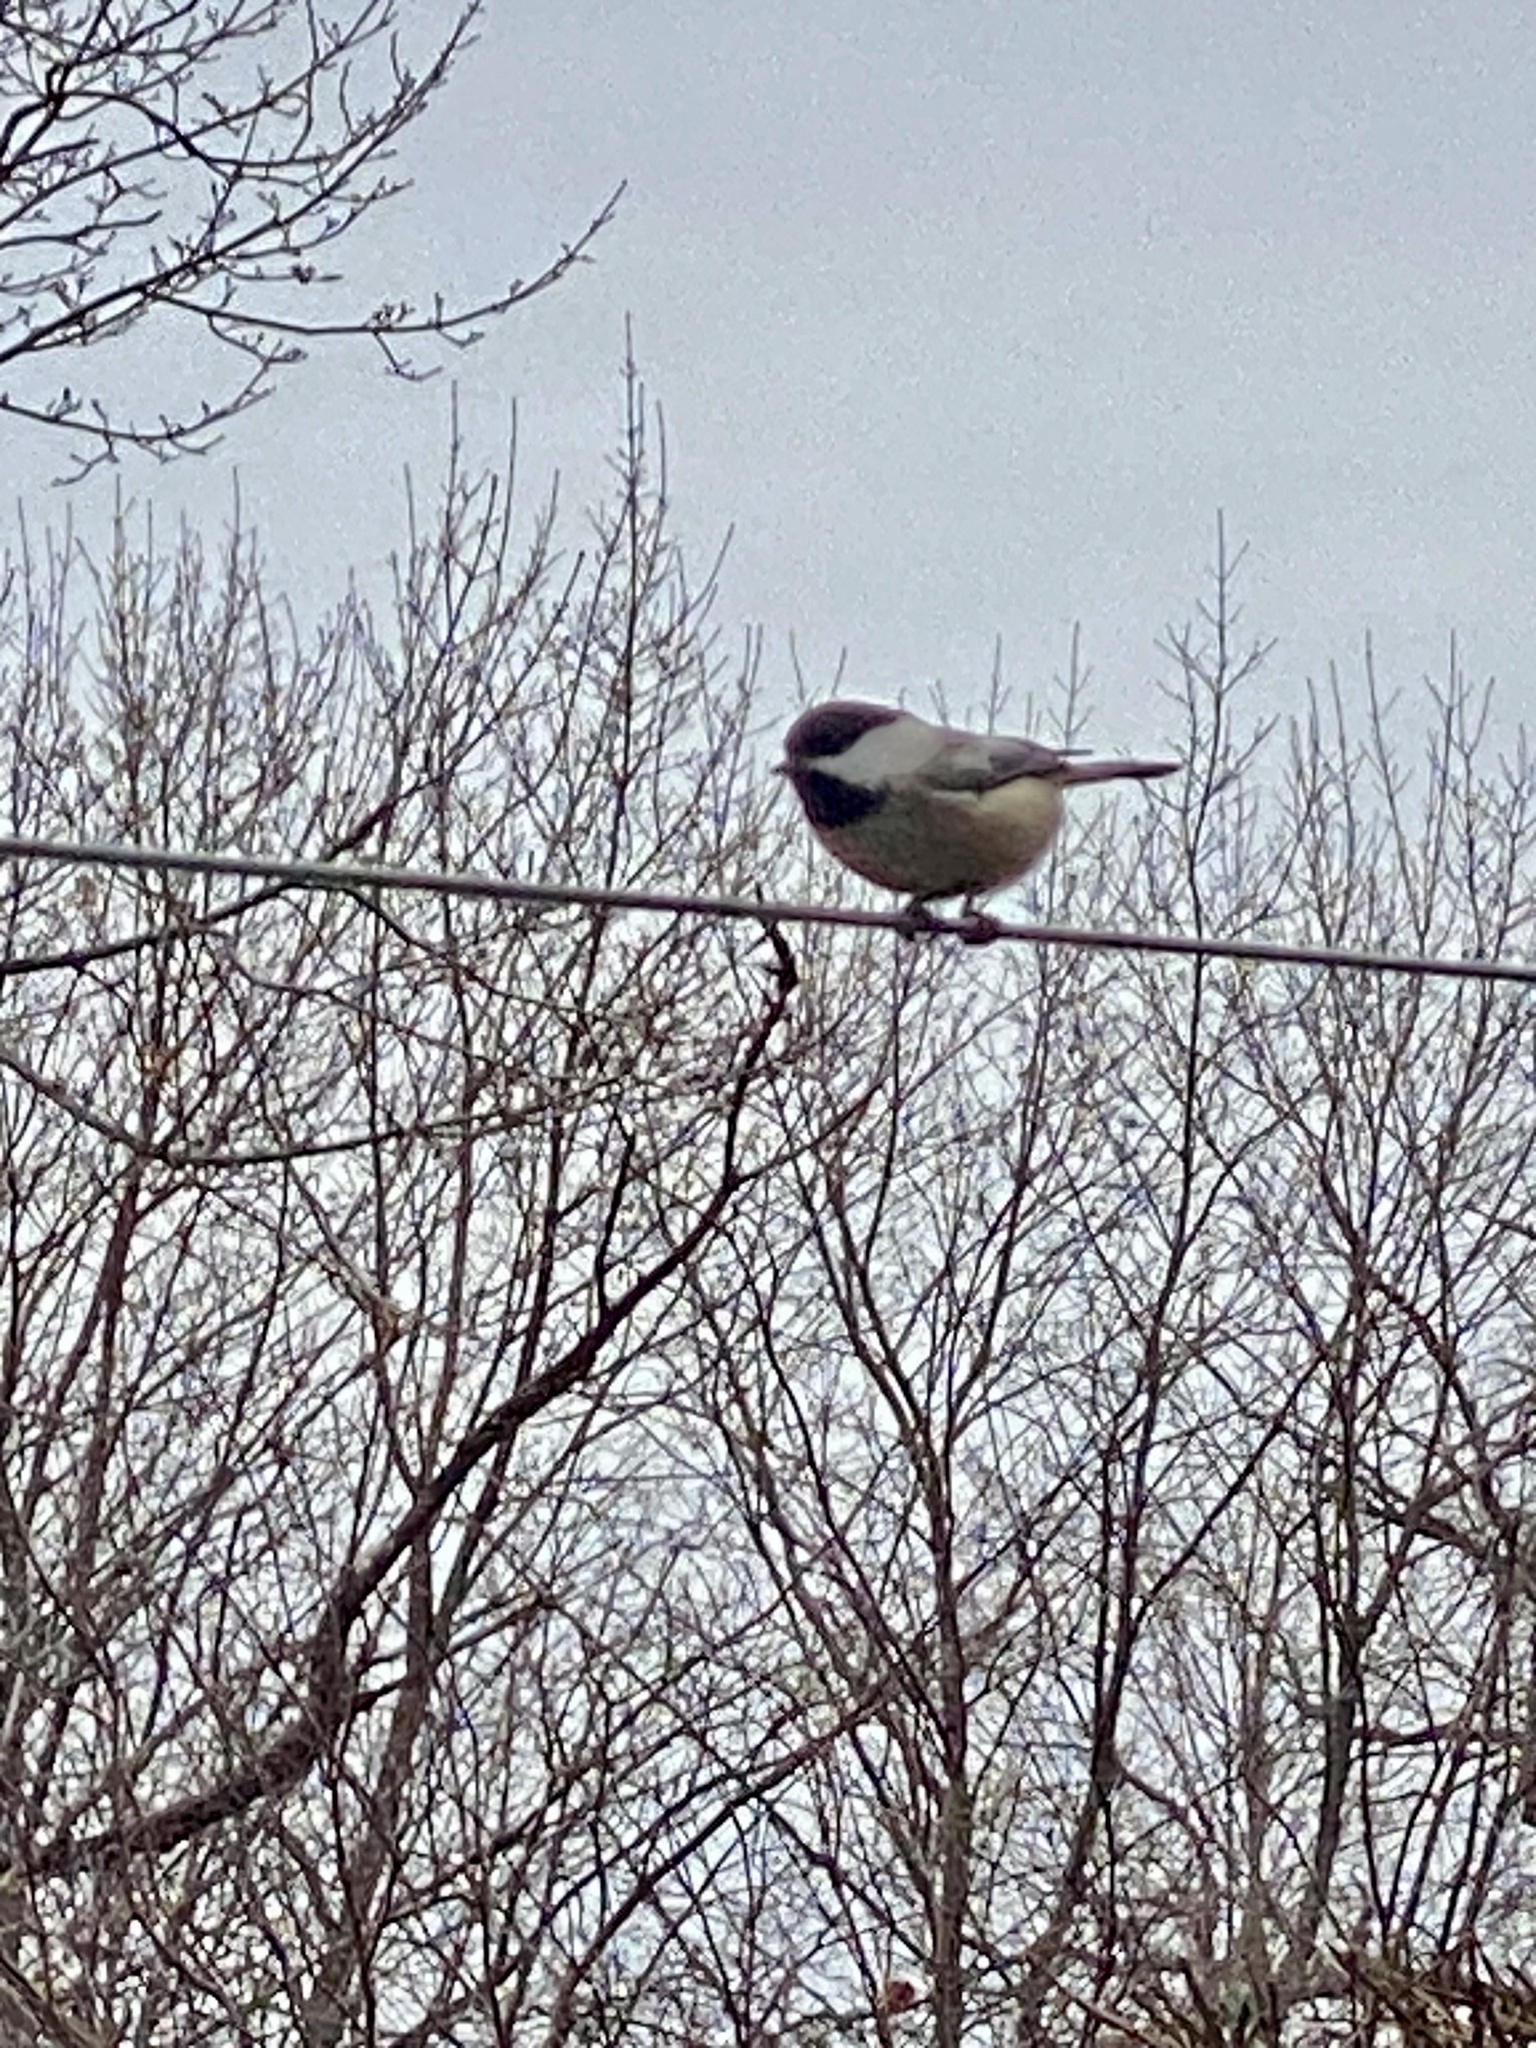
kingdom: Animalia
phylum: Chordata
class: Aves
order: Passeriformes
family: Paridae
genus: Poecile
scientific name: Poecile atricapillus
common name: Black-capped chickadee
